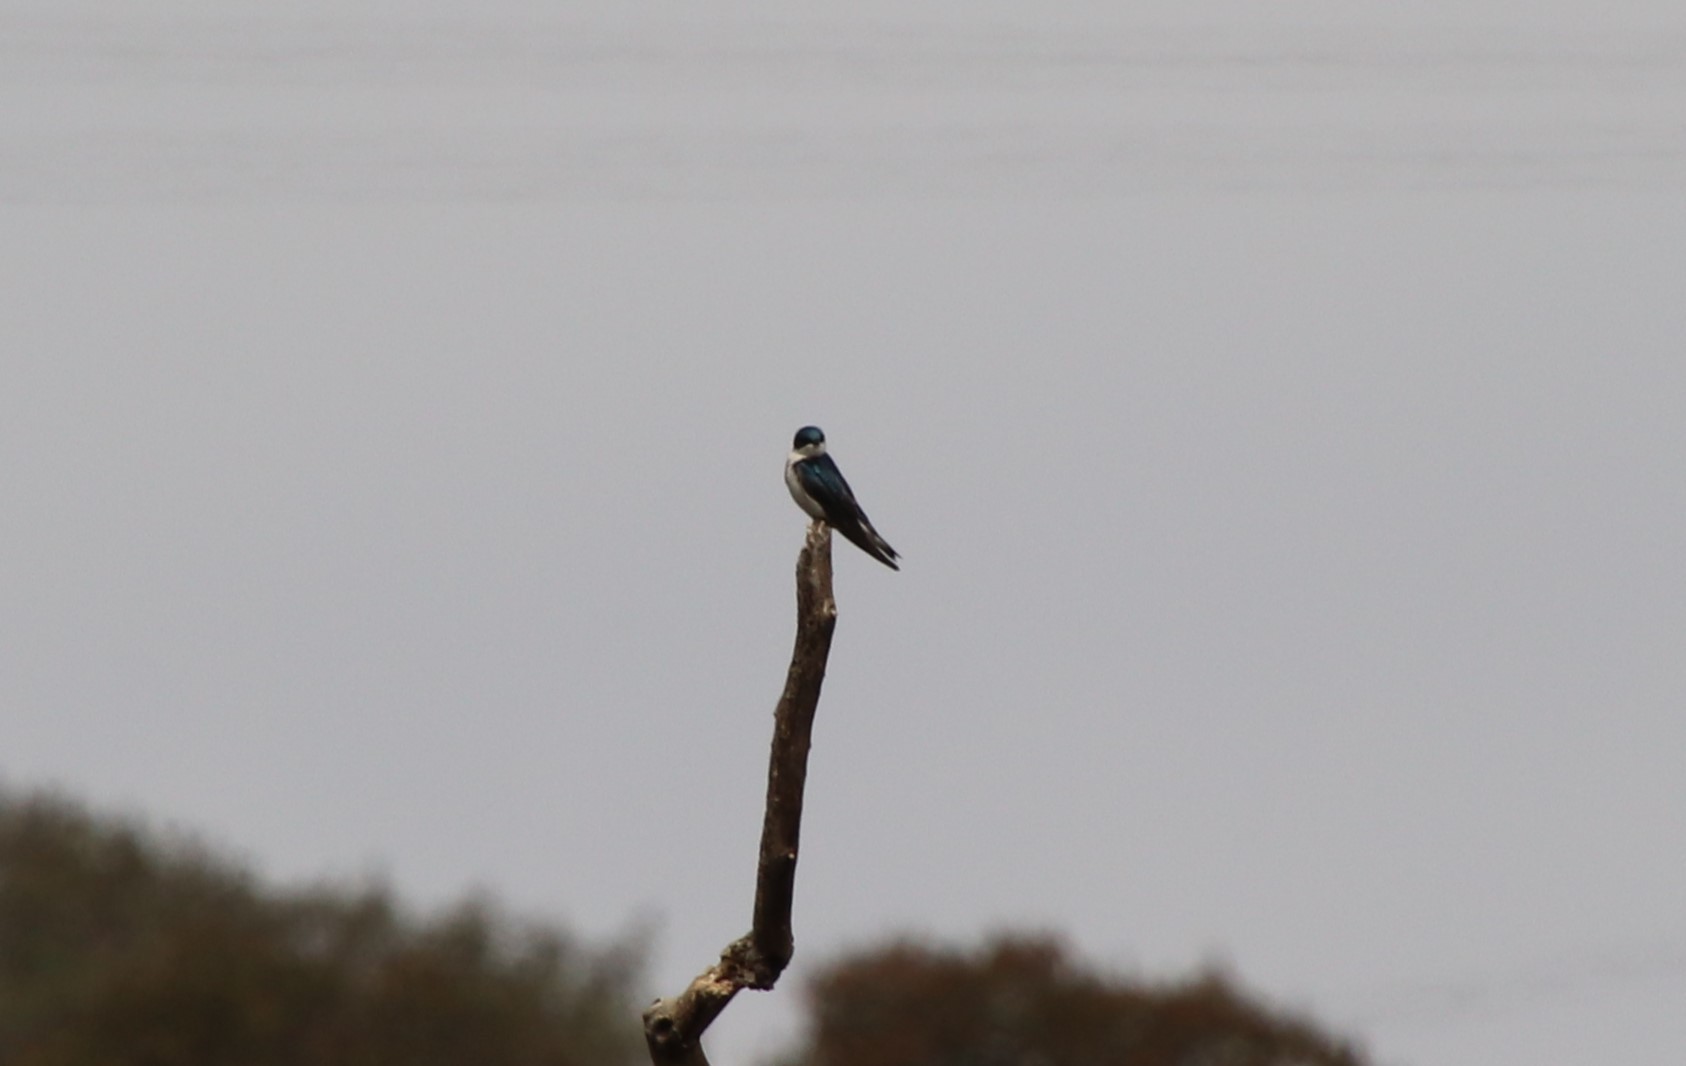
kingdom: Animalia
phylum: Chordata
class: Aves
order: Passeriformes
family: Hirundinidae
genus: Tachycineta
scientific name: Tachycineta bicolor
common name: Tree swallow
